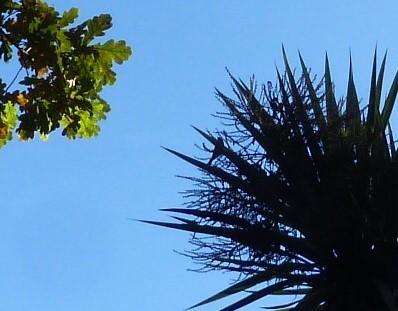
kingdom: Animalia
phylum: Chordata
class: Aves
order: Passeriformes
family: Acanthizidae
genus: Gerygone
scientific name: Gerygone igata
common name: Grey gerygone
